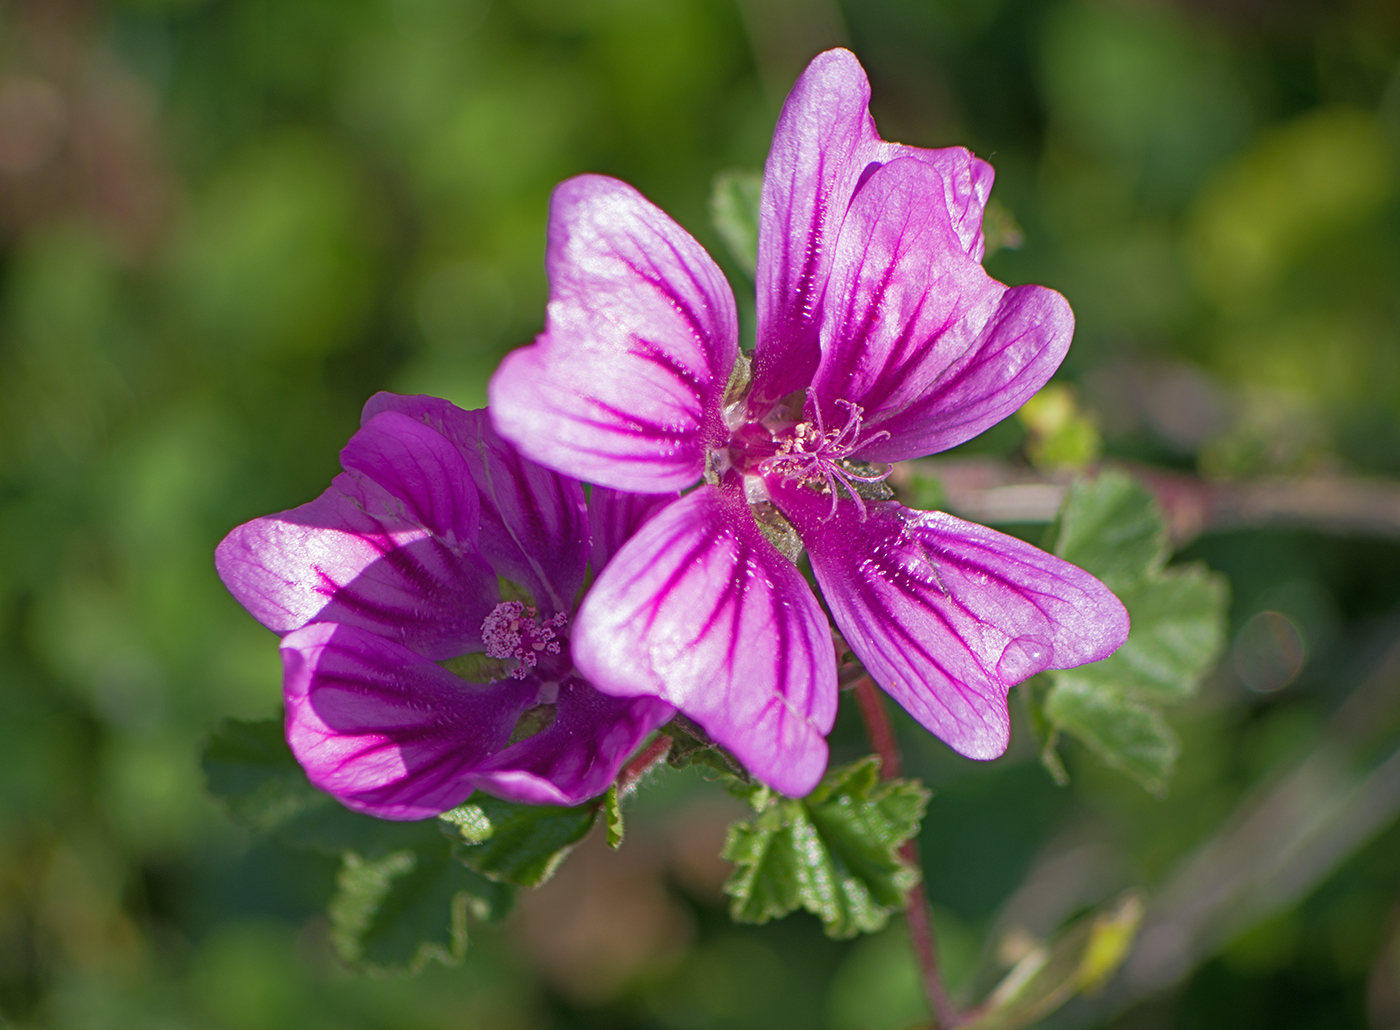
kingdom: Plantae
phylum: Tracheophyta
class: Magnoliopsida
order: Malvales
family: Malvaceae
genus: Malva
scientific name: Malva sylvestris
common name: Common mallow
